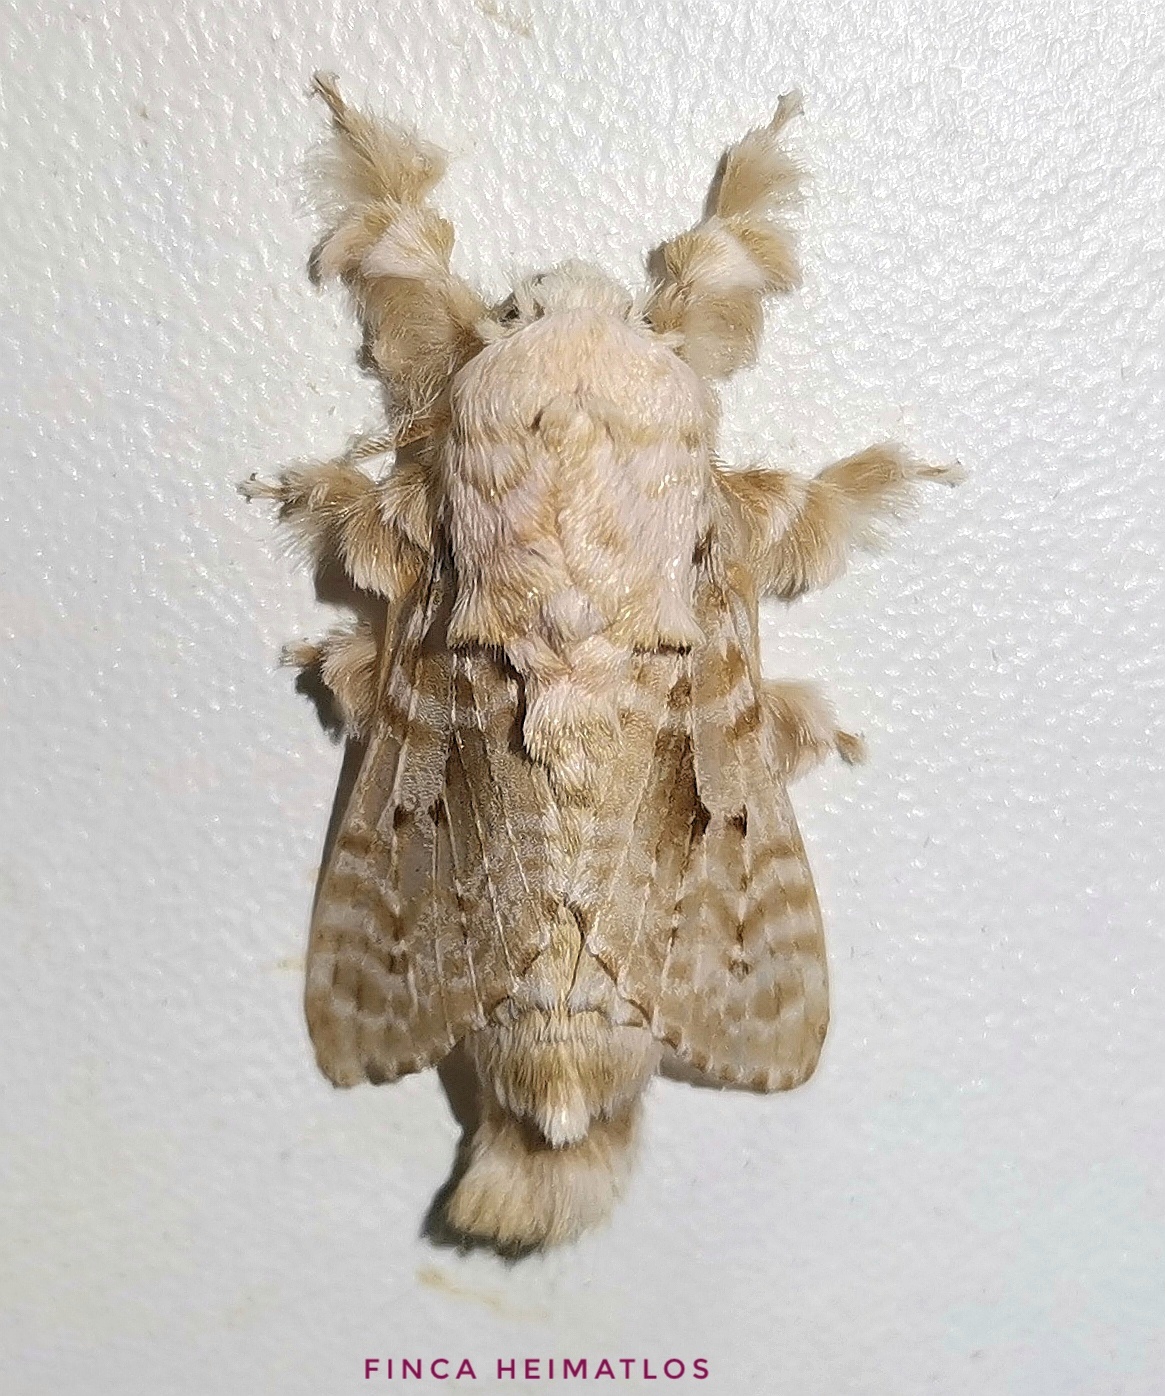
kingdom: Animalia
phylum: Arthropoda
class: Insecta
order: Lepidoptera
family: Lasiocampidae
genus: Tytocha
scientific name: Tytocha lineata
